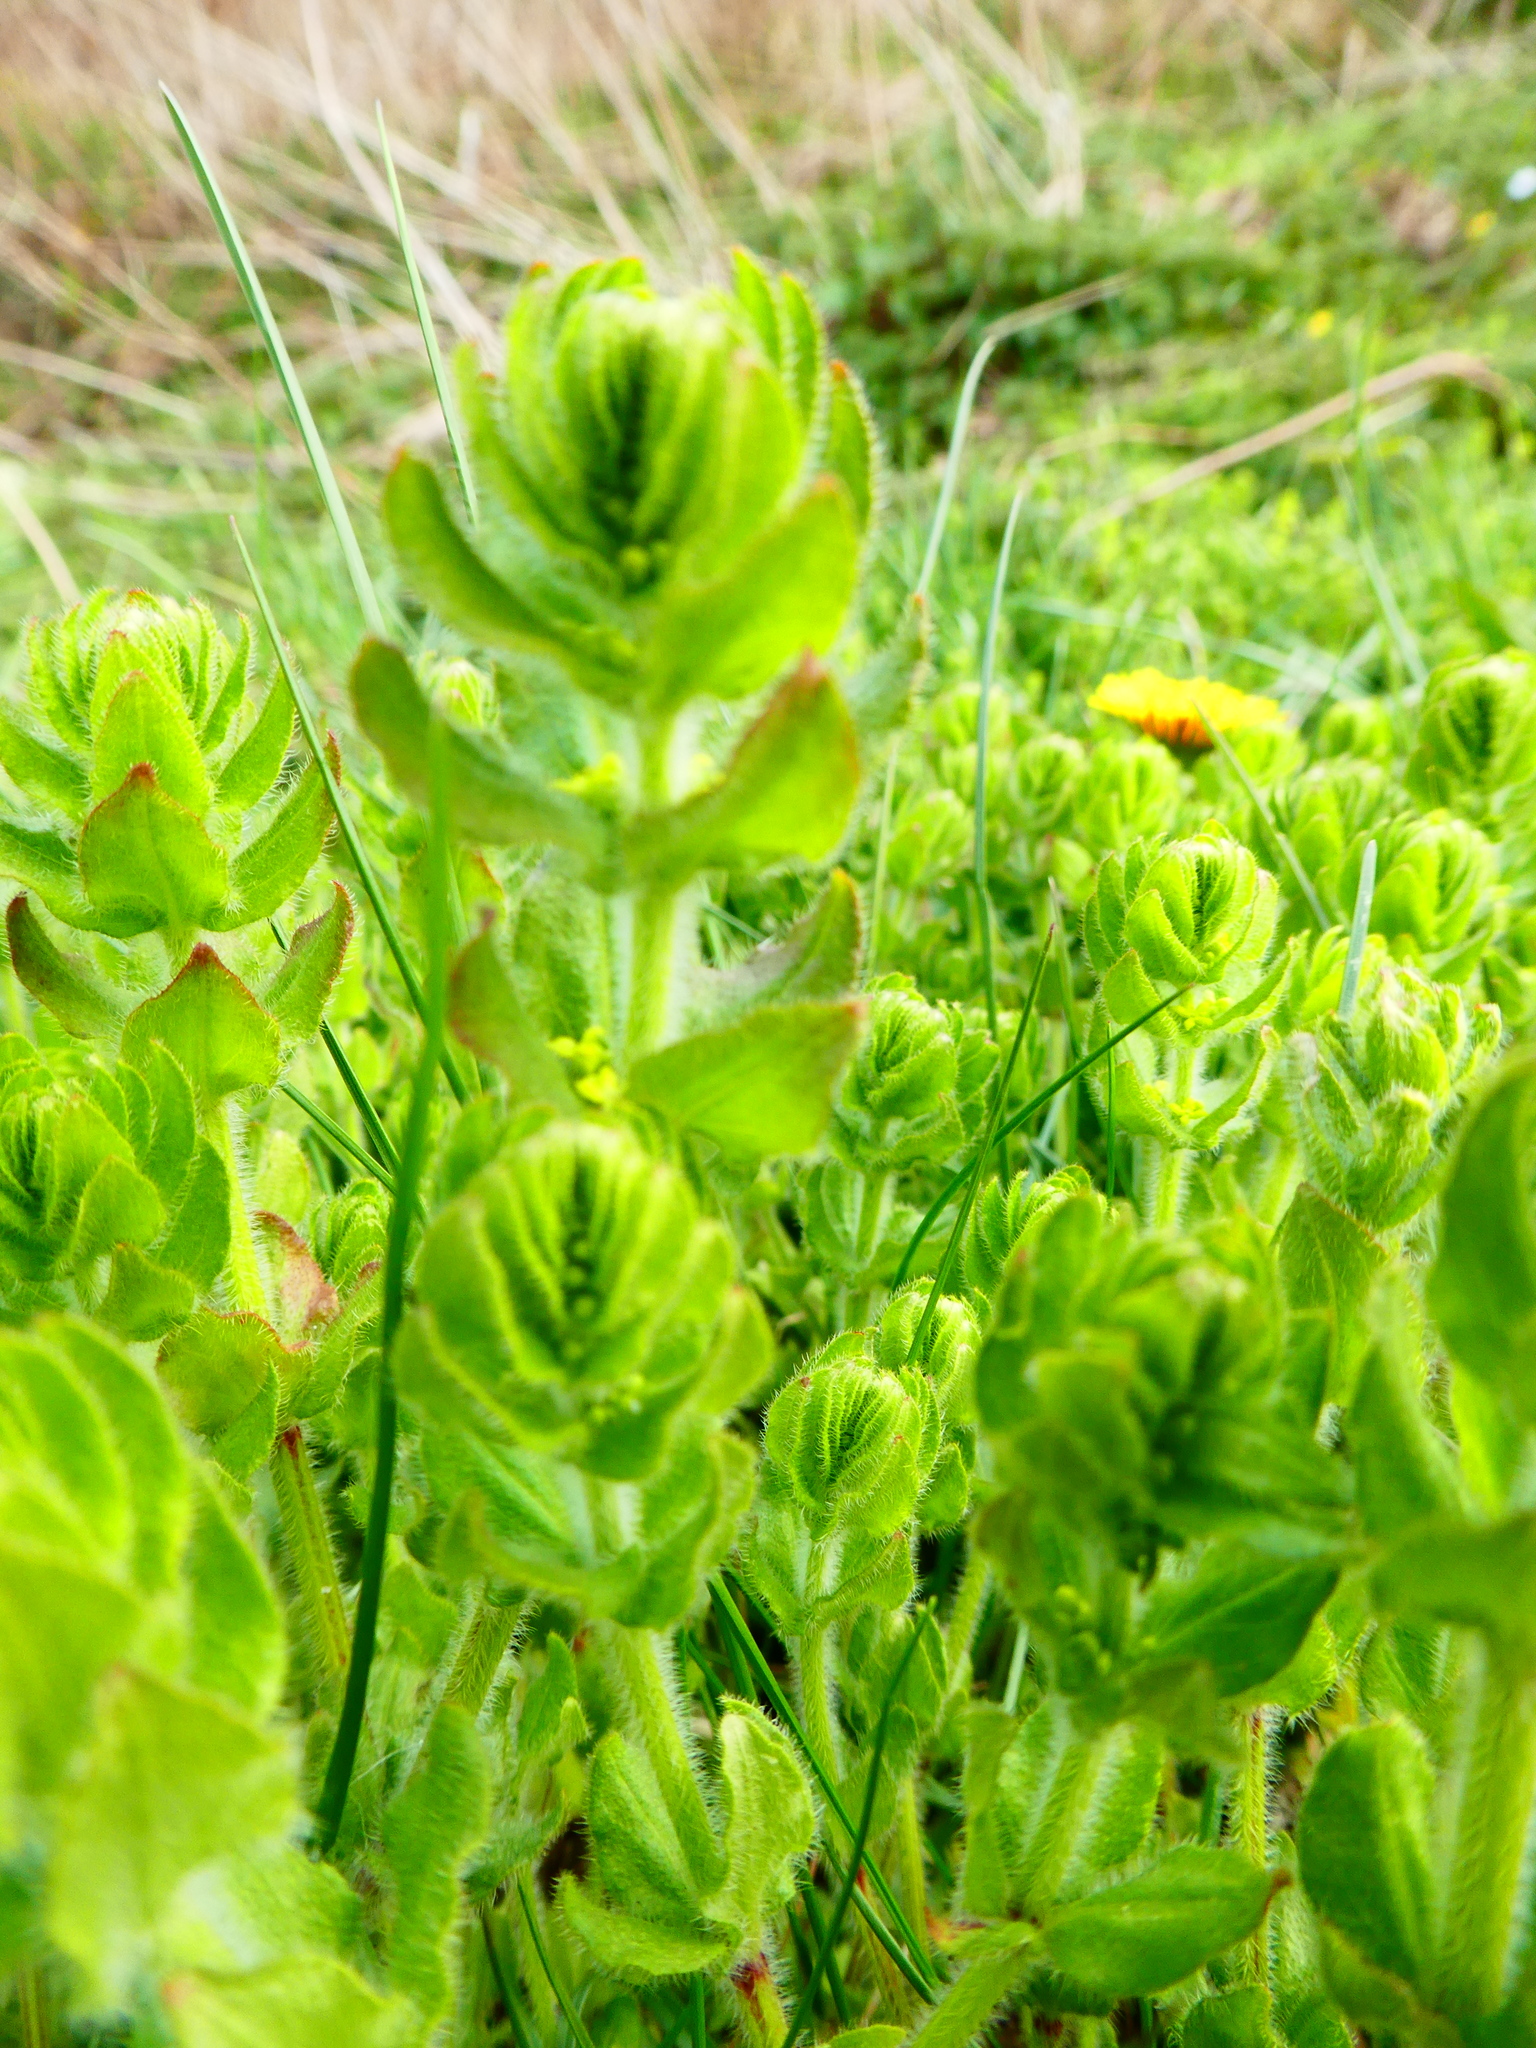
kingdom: Plantae
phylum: Tracheophyta
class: Magnoliopsida
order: Gentianales
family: Rubiaceae
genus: Cruciata
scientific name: Cruciata laevipes
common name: Crosswort
